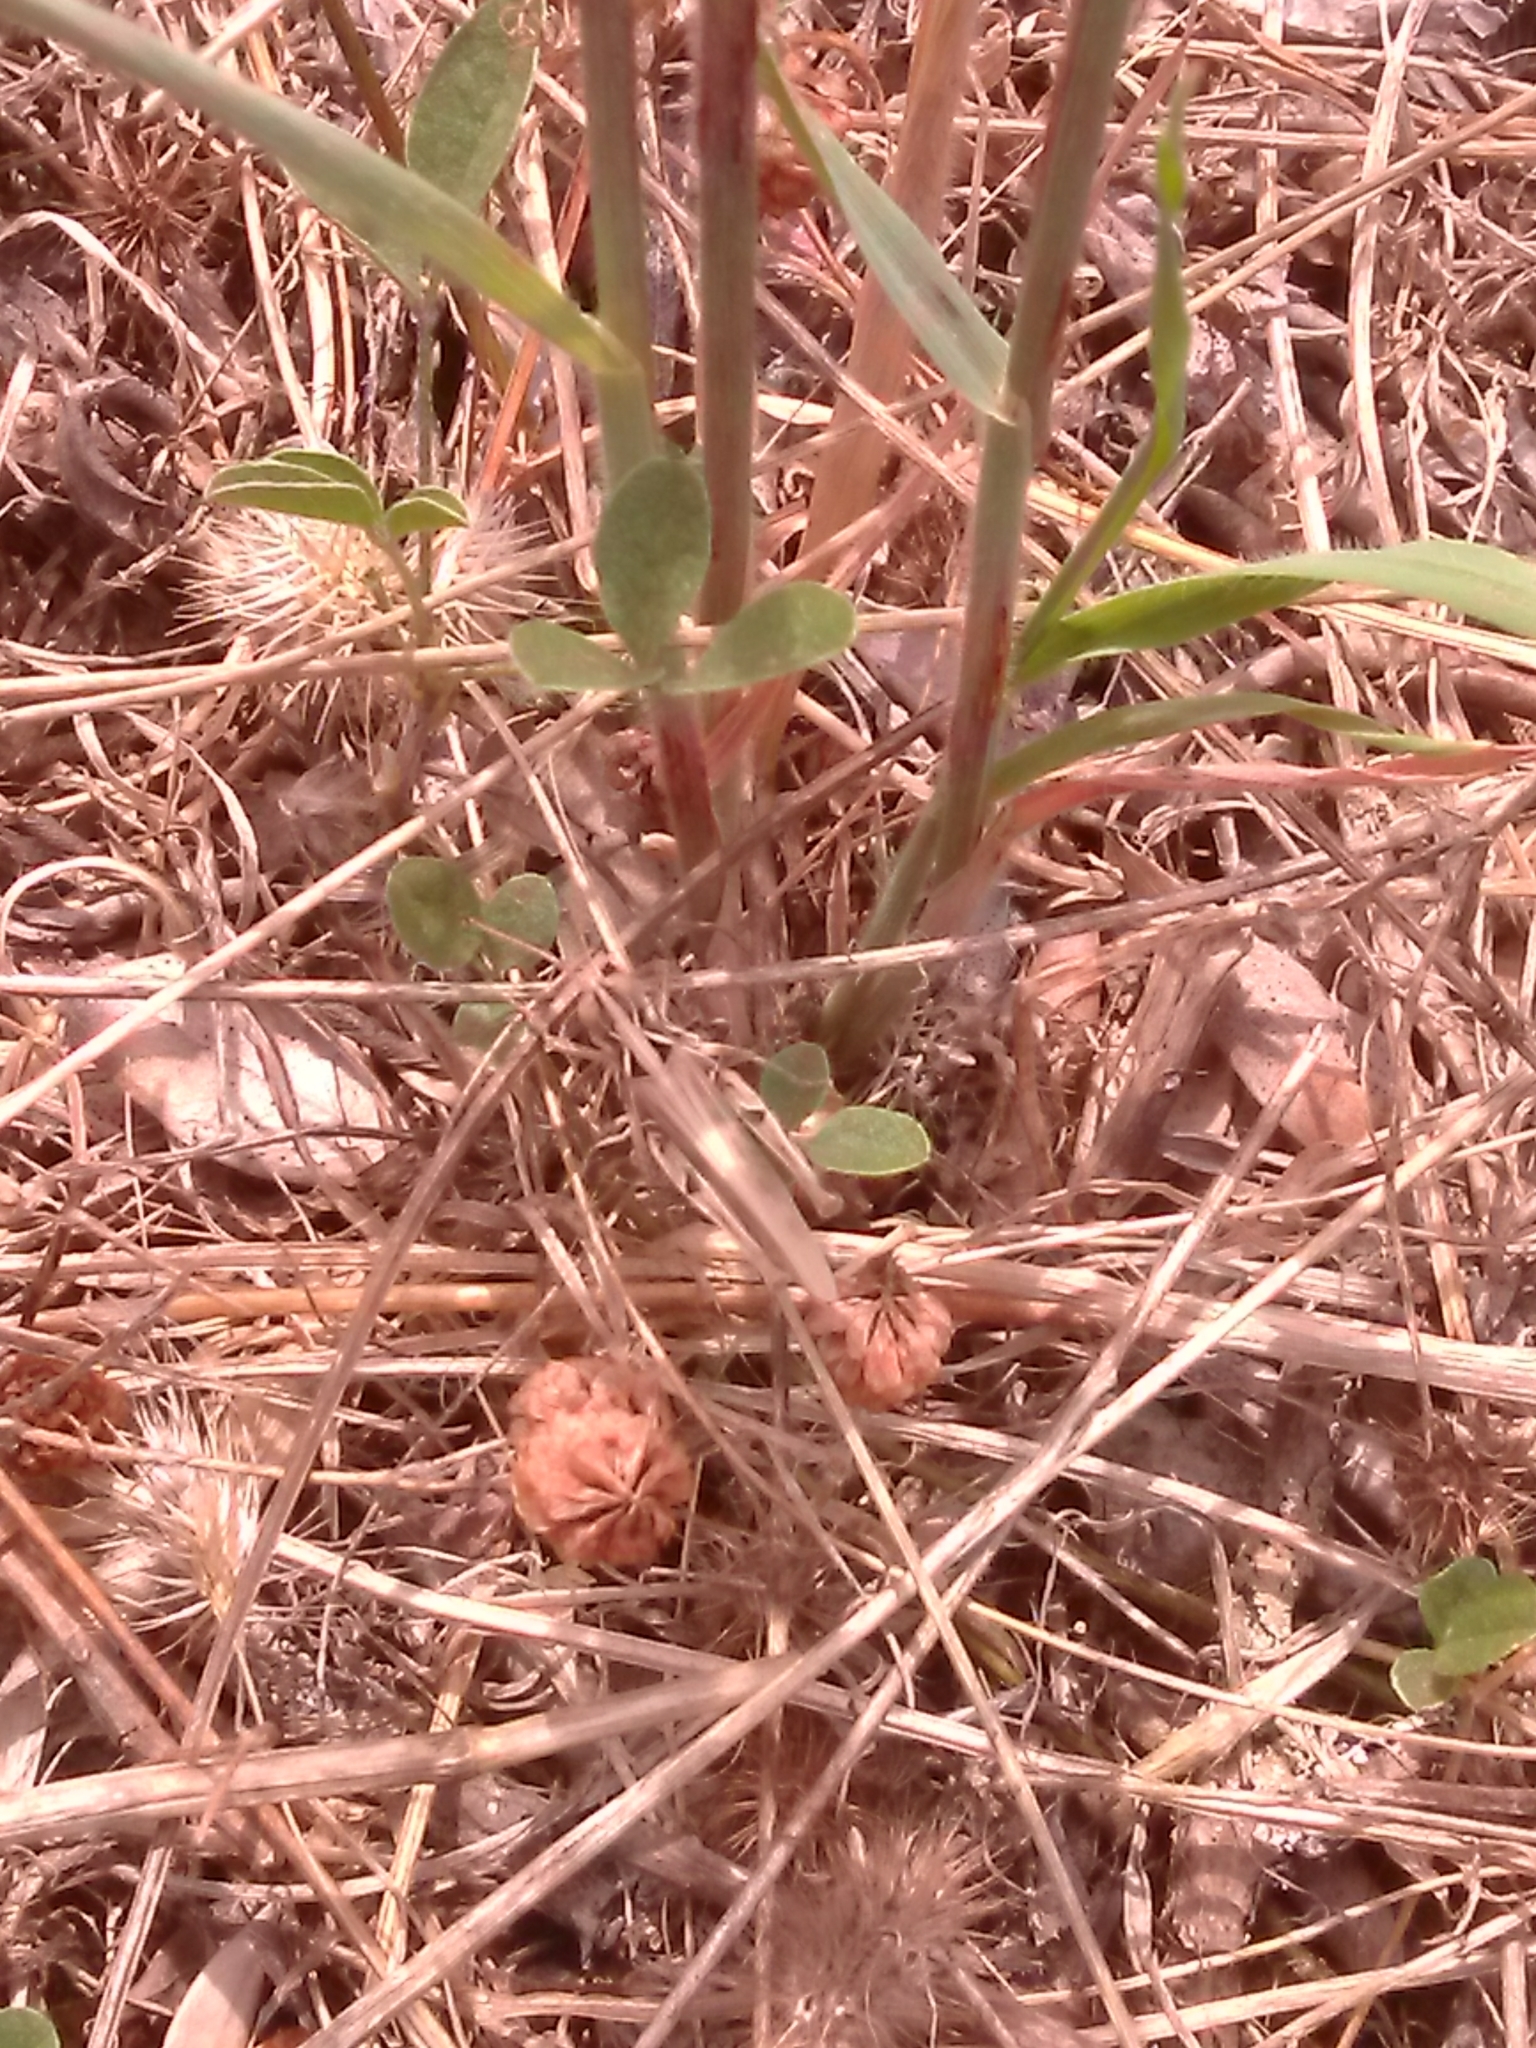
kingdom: Animalia
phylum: Arthropoda
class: Insecta
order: Orthoptera
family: Acrididae
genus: Dociostaurus
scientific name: Dociostaurus jagoi
